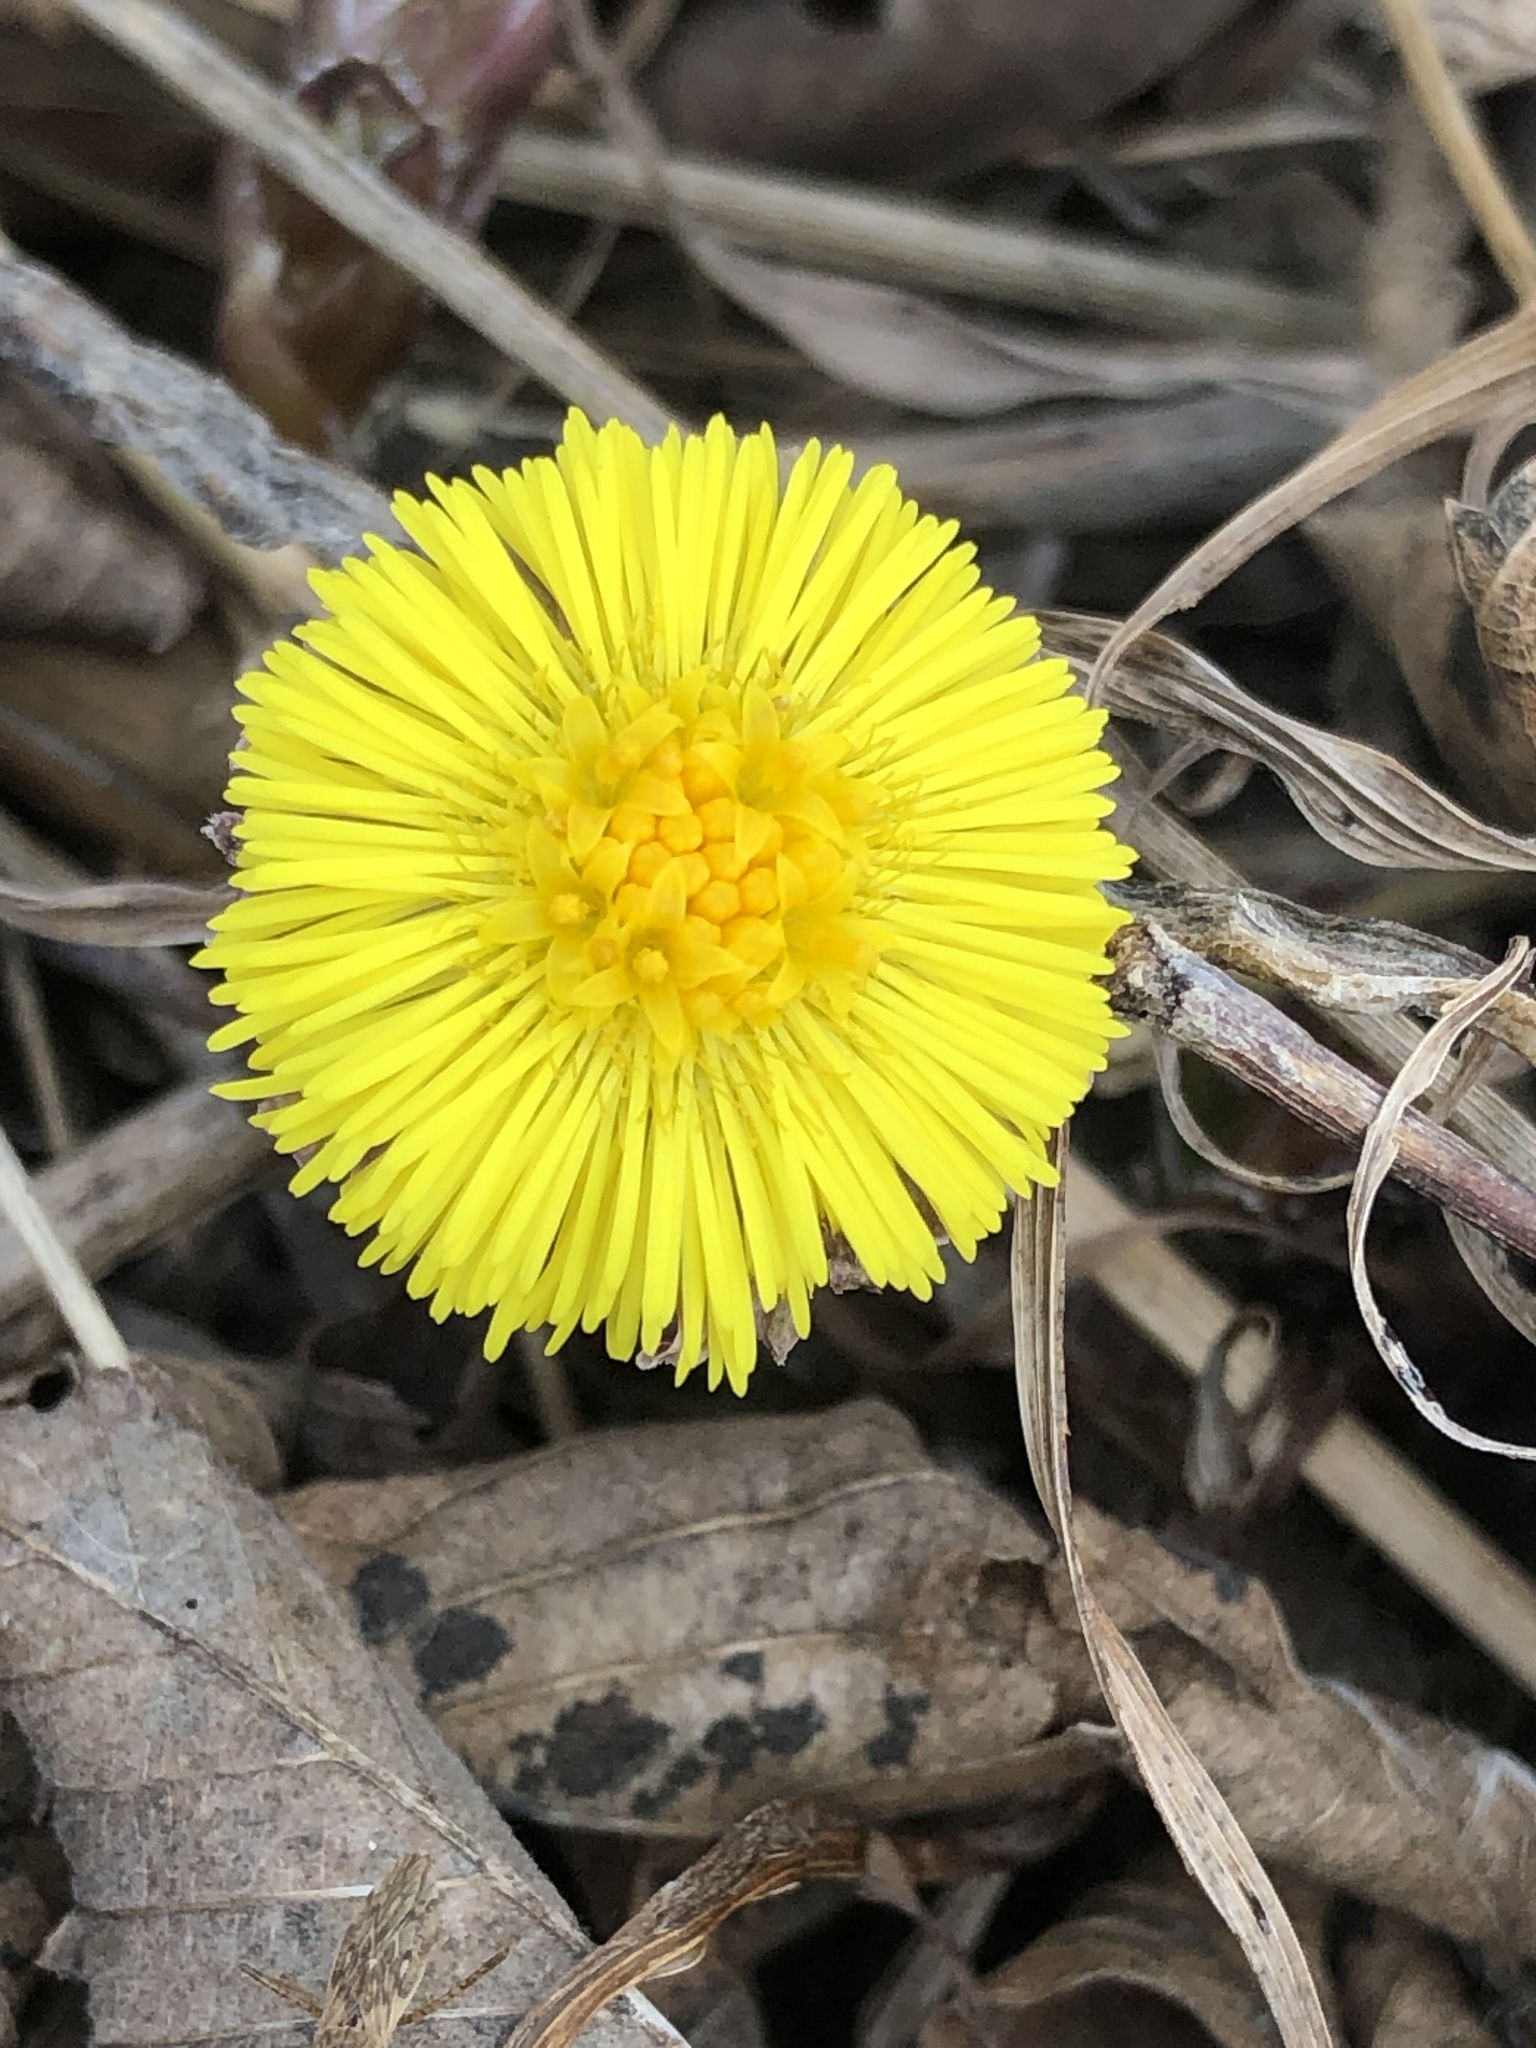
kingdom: Plantae
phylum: Tracheophyta
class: Magnoliopsida
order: Asterales
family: Asteraceae
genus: Tussilago
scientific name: Tussilago farfara
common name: Coltsfoot
